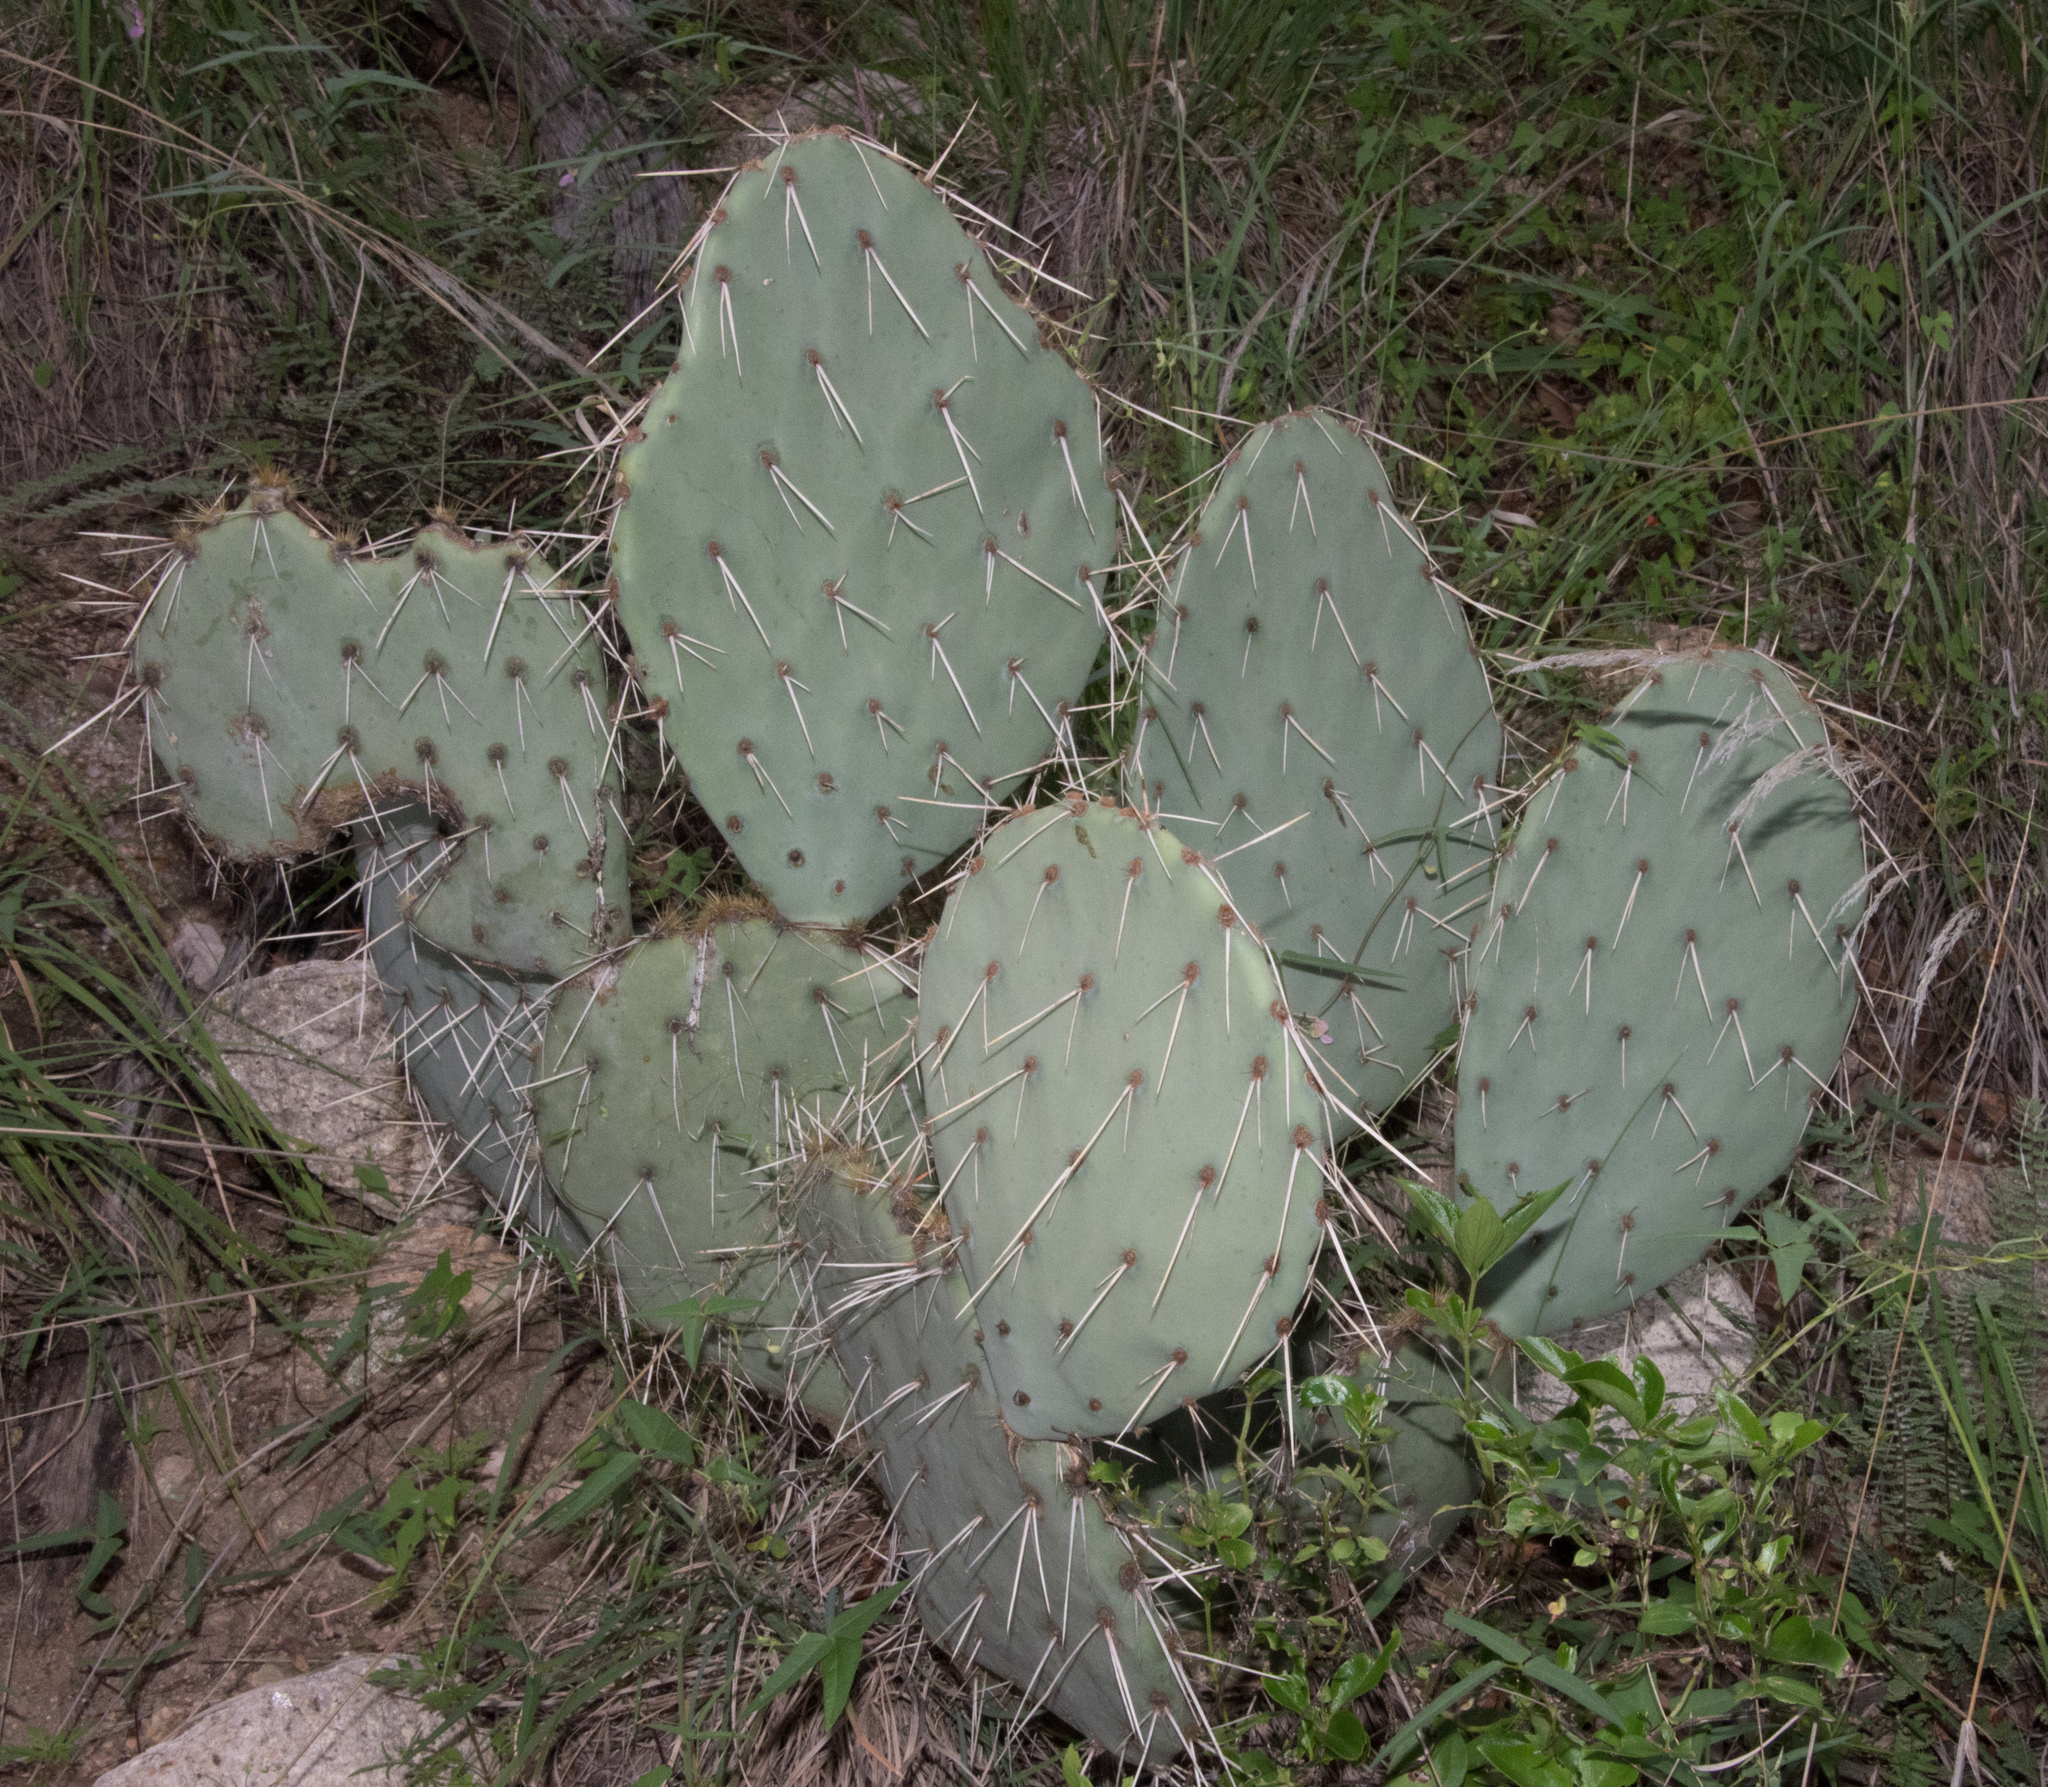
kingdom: Plantae
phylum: Tracheophyta
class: Magnoliopsida
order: Caryophyllales
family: Cactaceae
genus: Opuntia
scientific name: Opuntia engelmannii
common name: Cactus-apple
